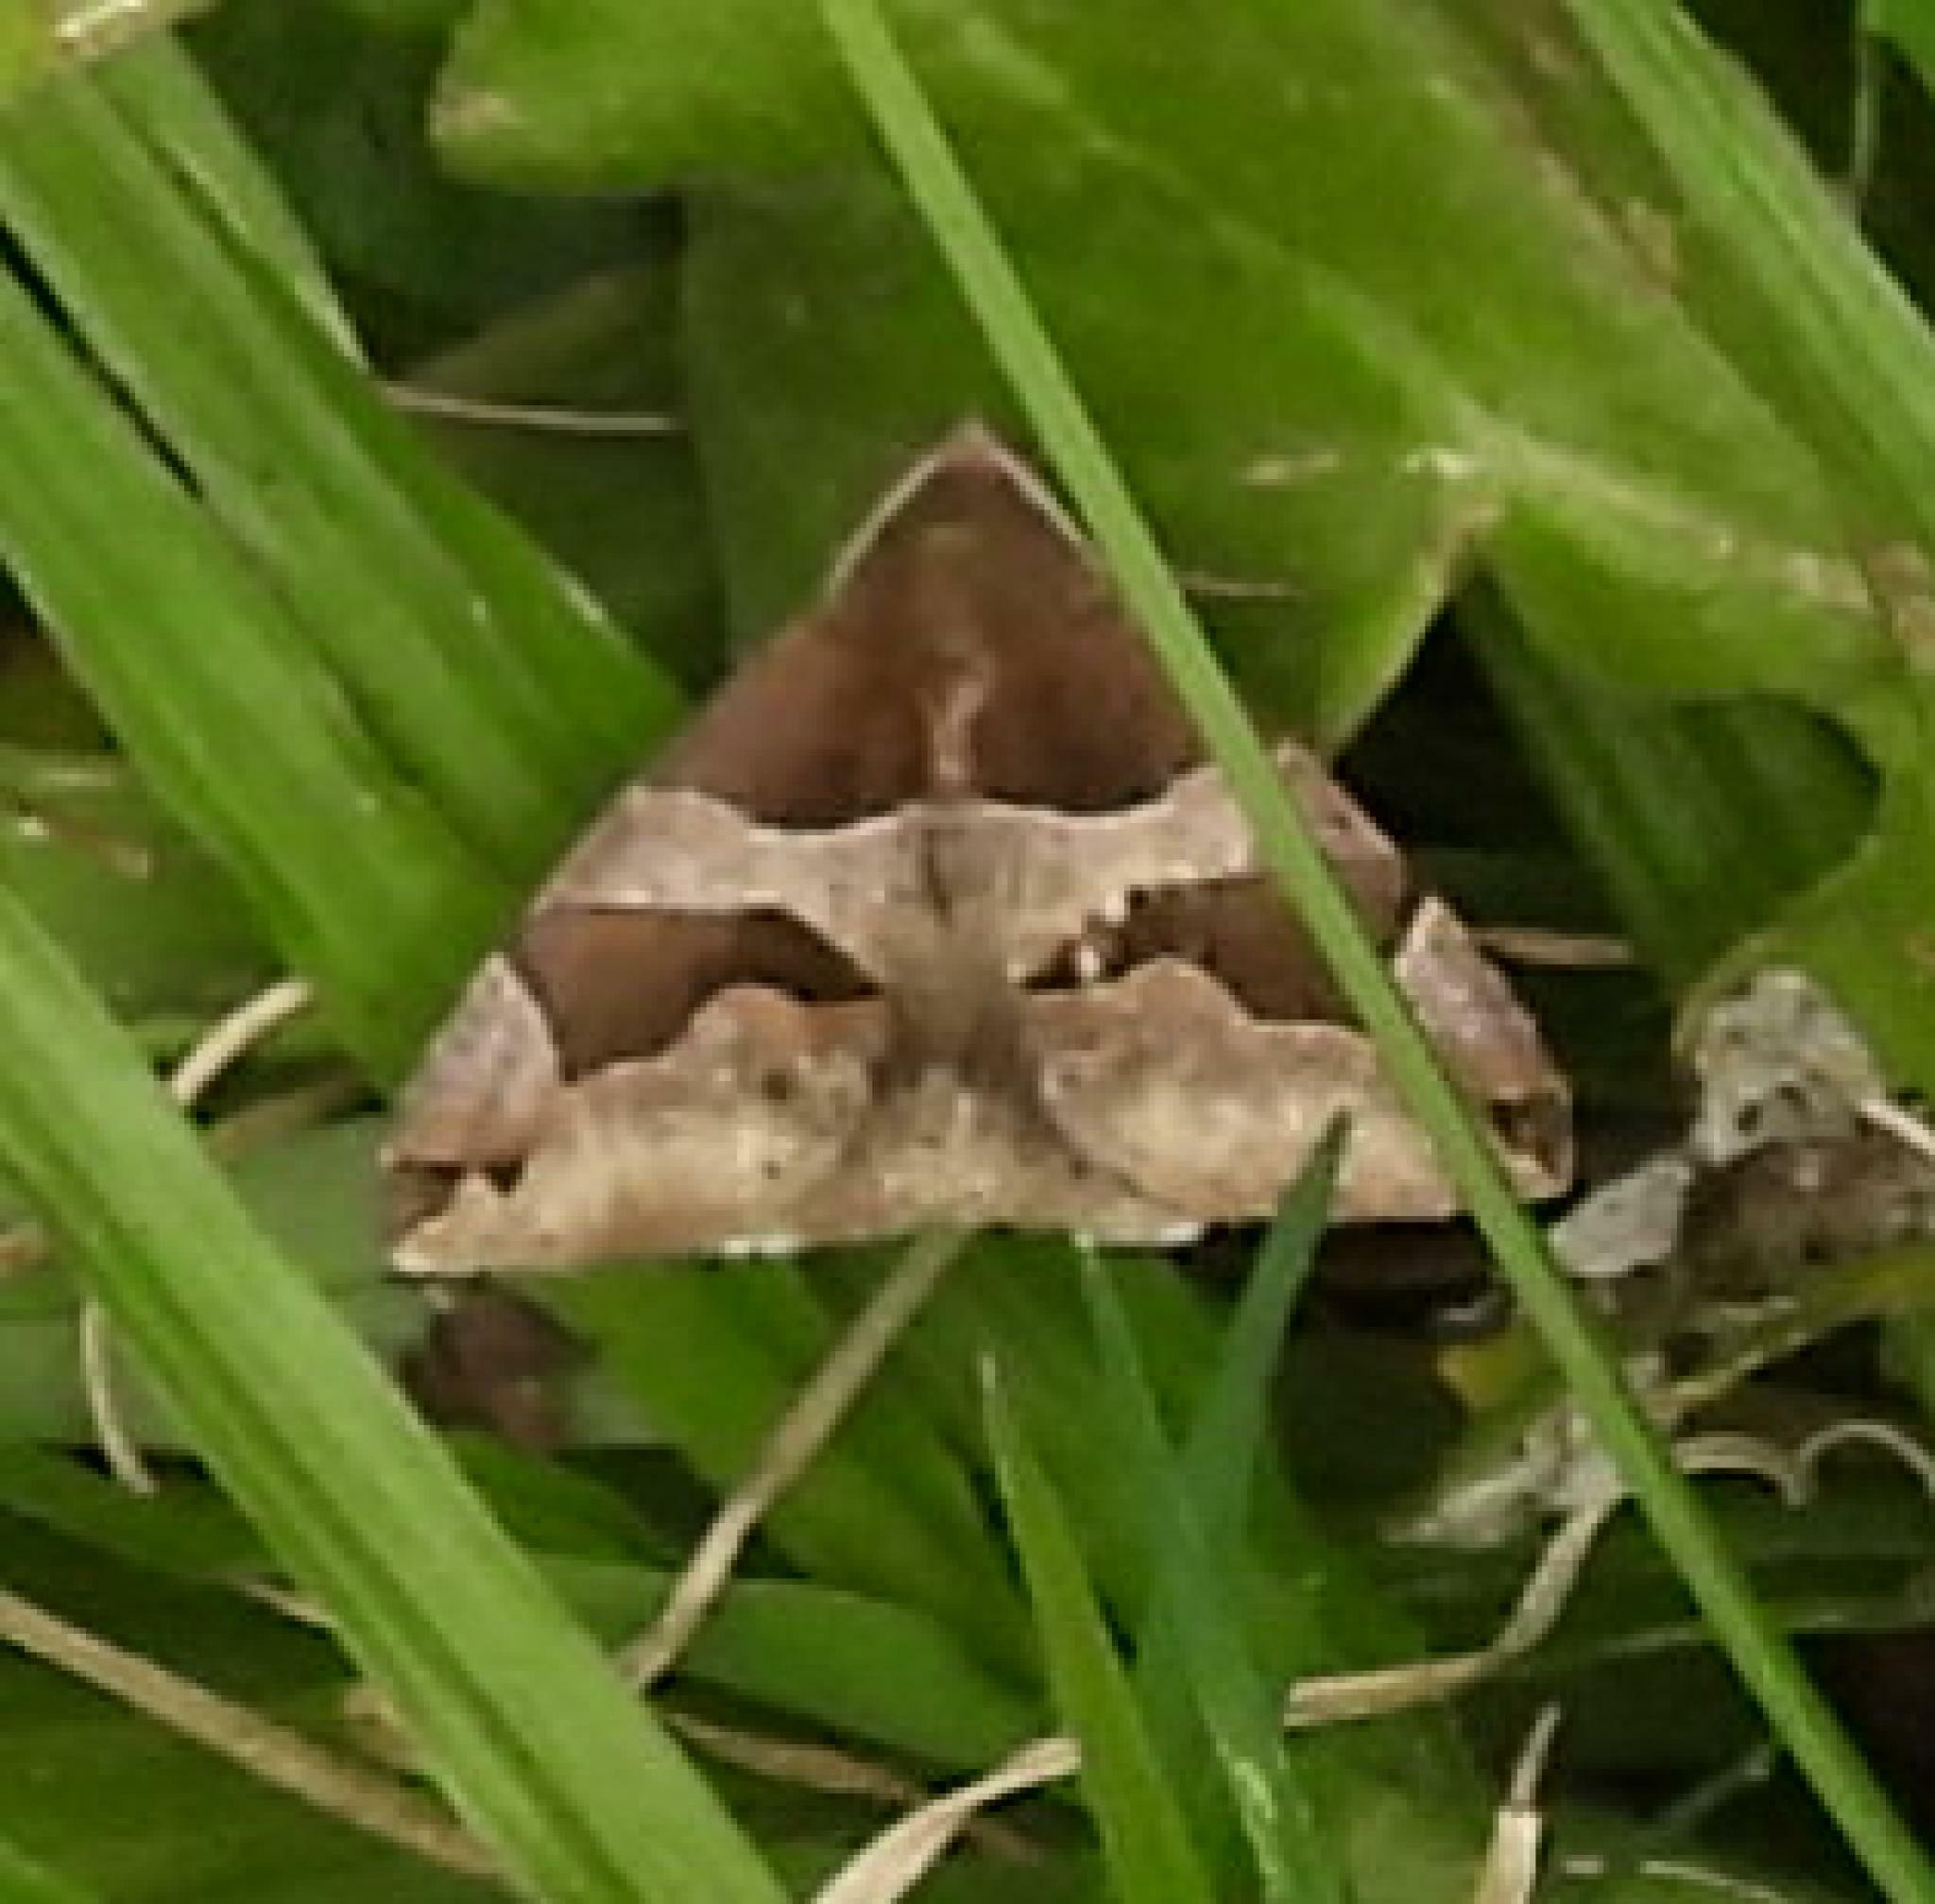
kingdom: Animalia
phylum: Arthropoda
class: Insecta
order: Lepidoptera
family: Erebidae
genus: Dysgonia
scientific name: Dysgonia torrida
